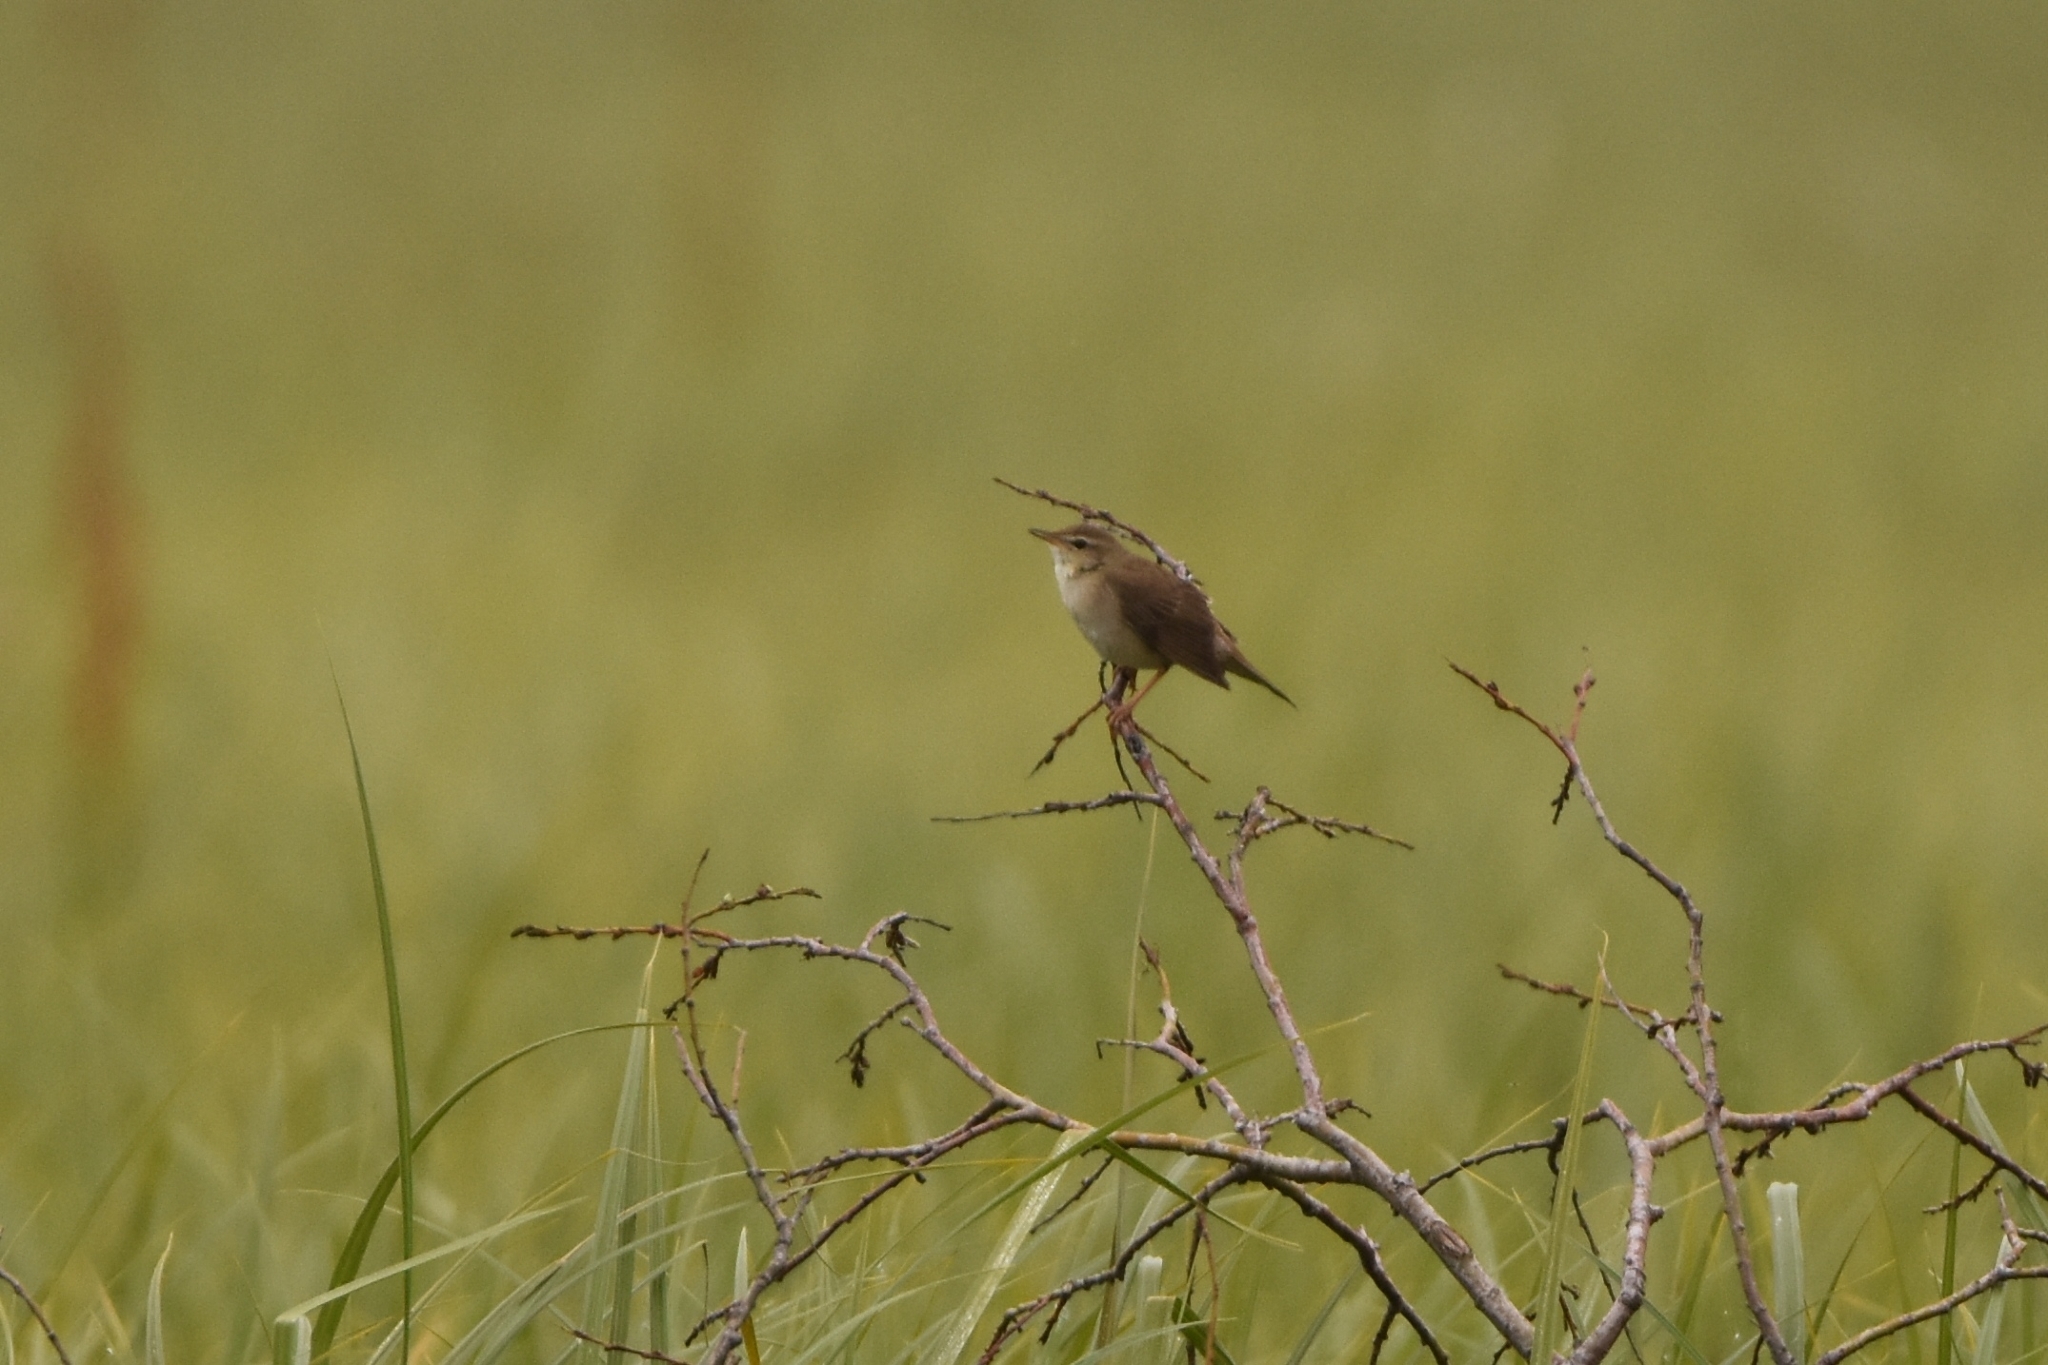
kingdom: Animalia
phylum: Chordata
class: Aves
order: Passeriformes
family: Locustellidae
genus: Locustella
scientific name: Locustella ochotensis
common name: Middendorff's grasshopper-warbler
